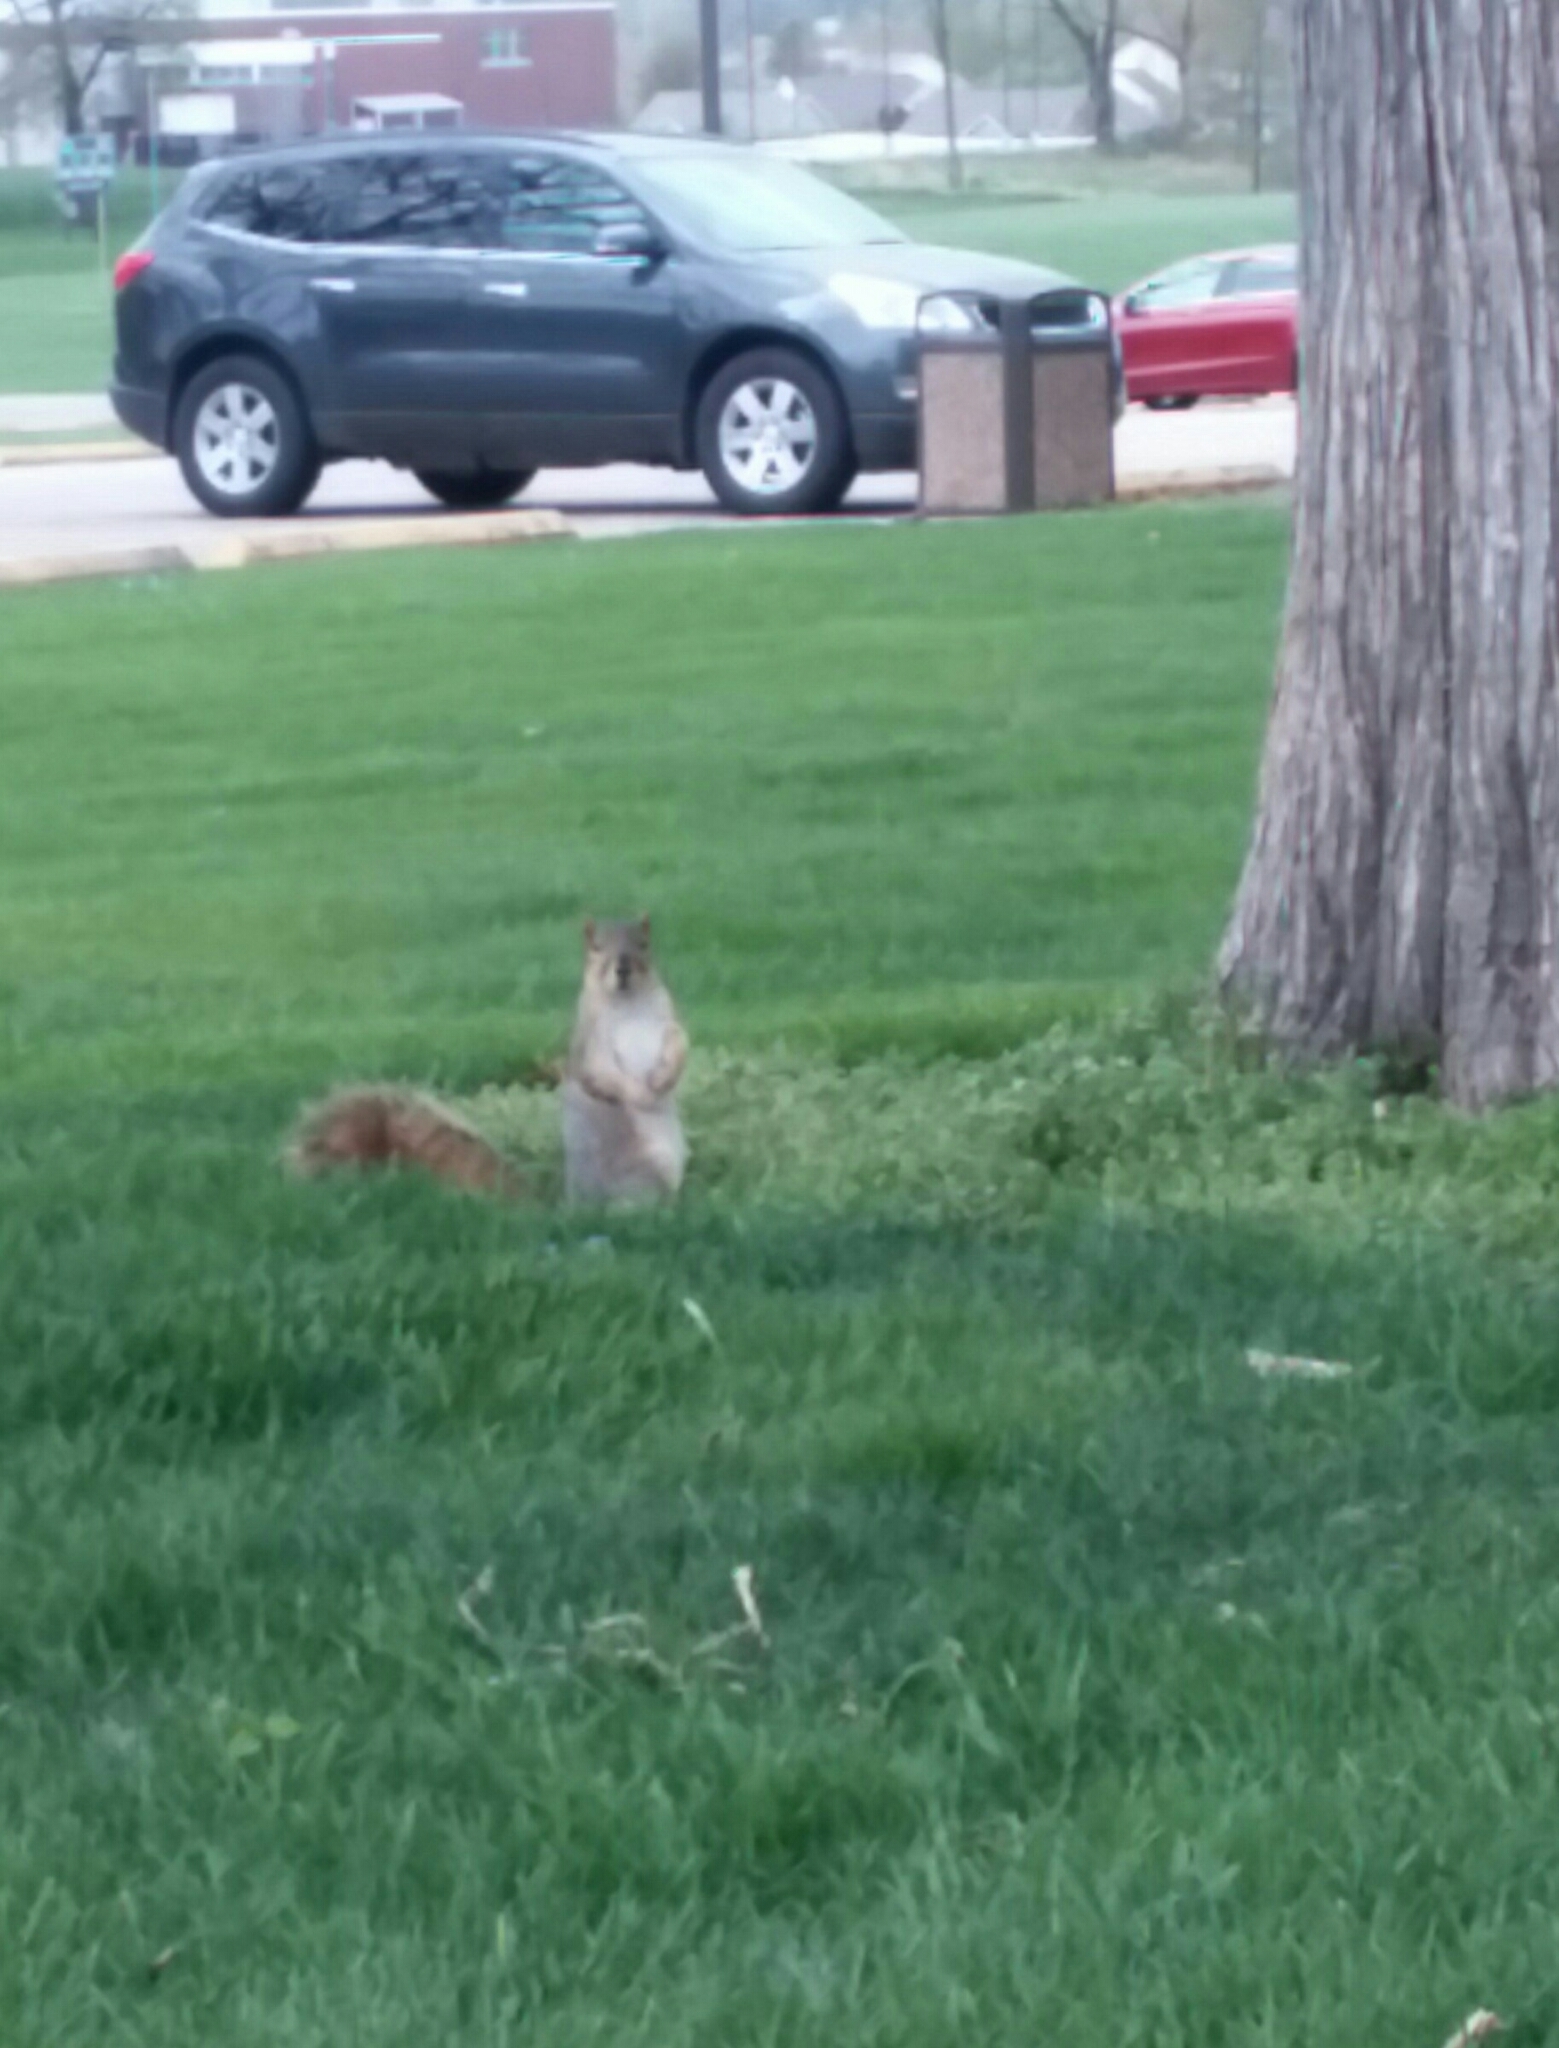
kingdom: Animalia
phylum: Chordata
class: Mammalia
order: Rodentia
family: Sciuridae
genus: Sciurus
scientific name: Sciurus niger
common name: Fox squirrel
